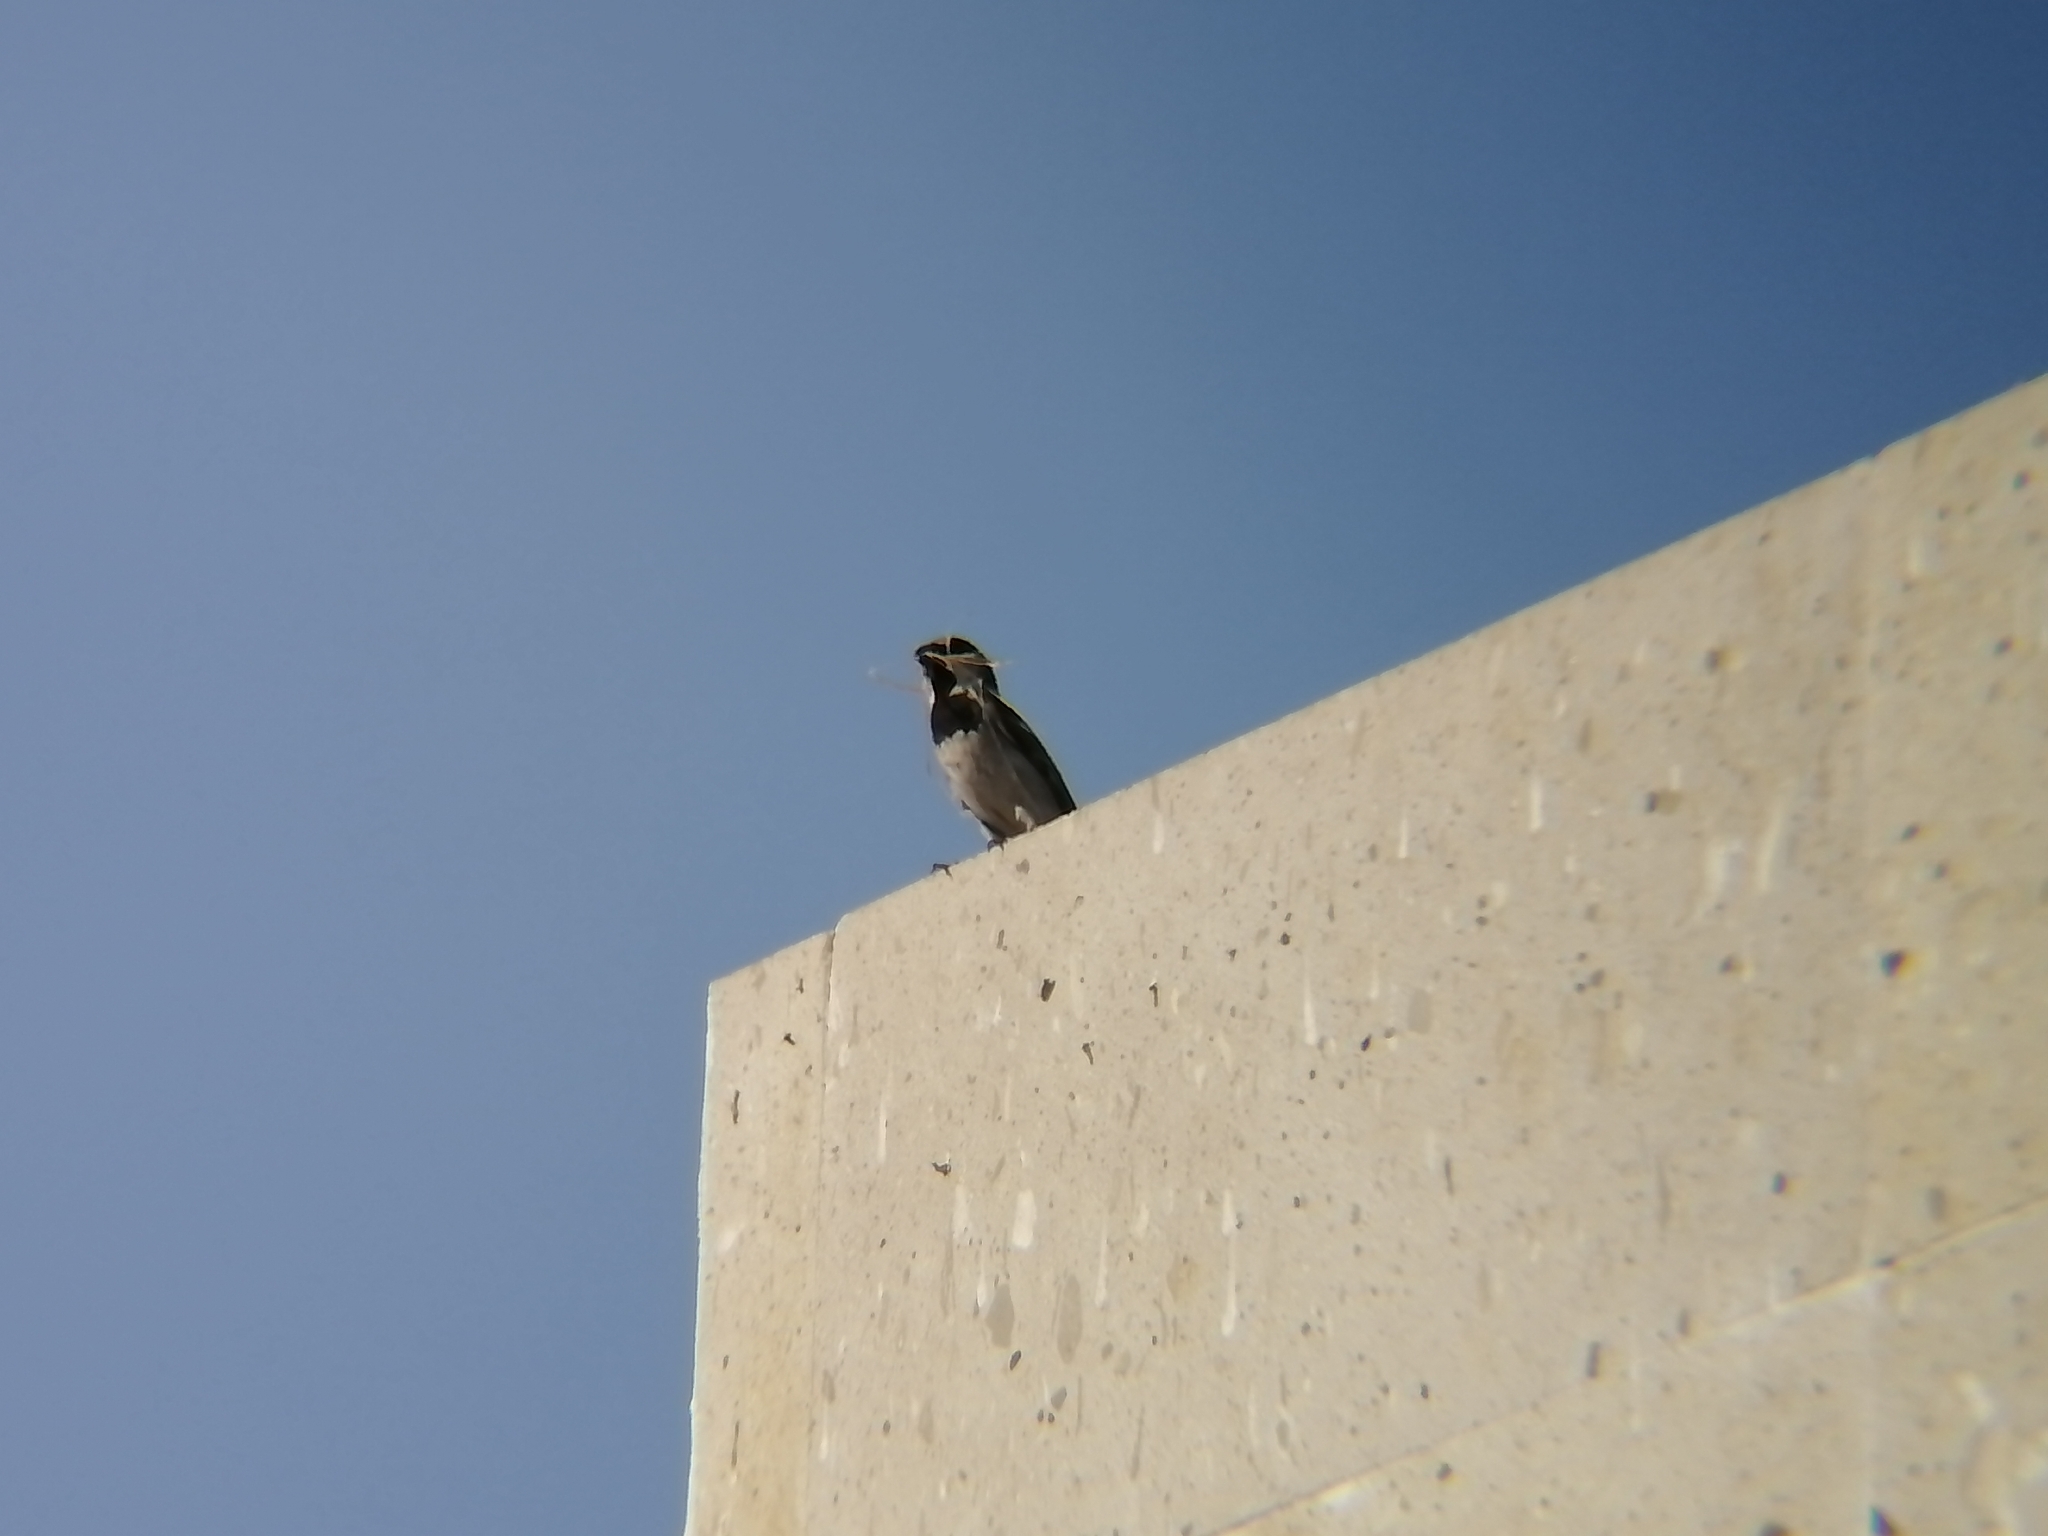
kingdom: Animalia
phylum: Chordata
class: Aves
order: Passeriformes
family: Passeridae
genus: Passer
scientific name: Passer domesticus
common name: House sparrow
